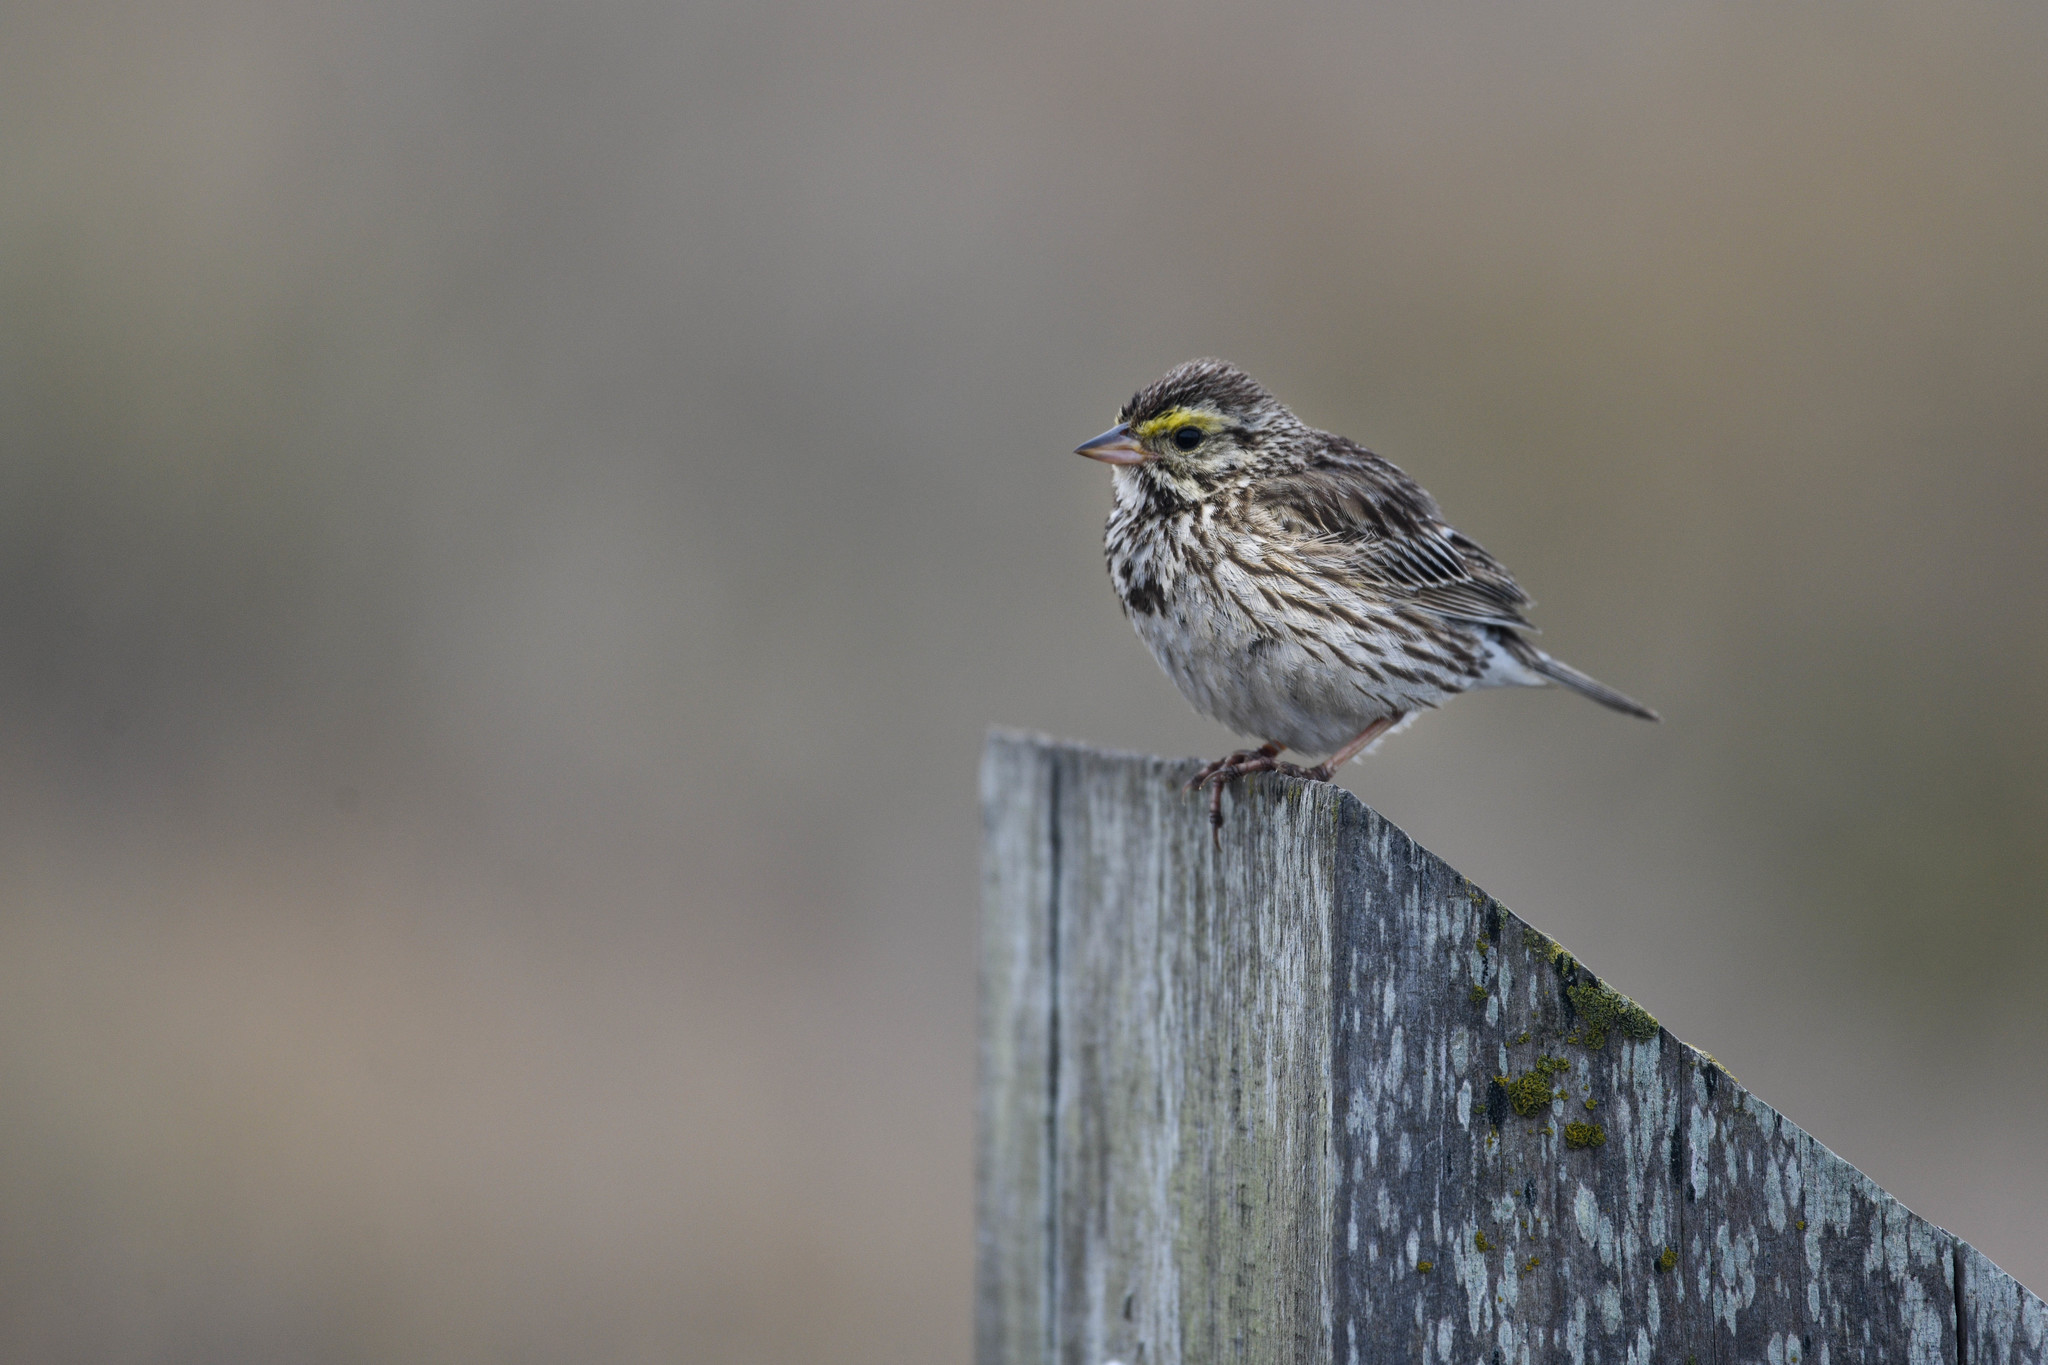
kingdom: Animalia
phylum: Chordata
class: Aves
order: Passeriformes
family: Passerellidae
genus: Passerculus
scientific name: Passerculus sandwichensis
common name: Savannah sparrow
